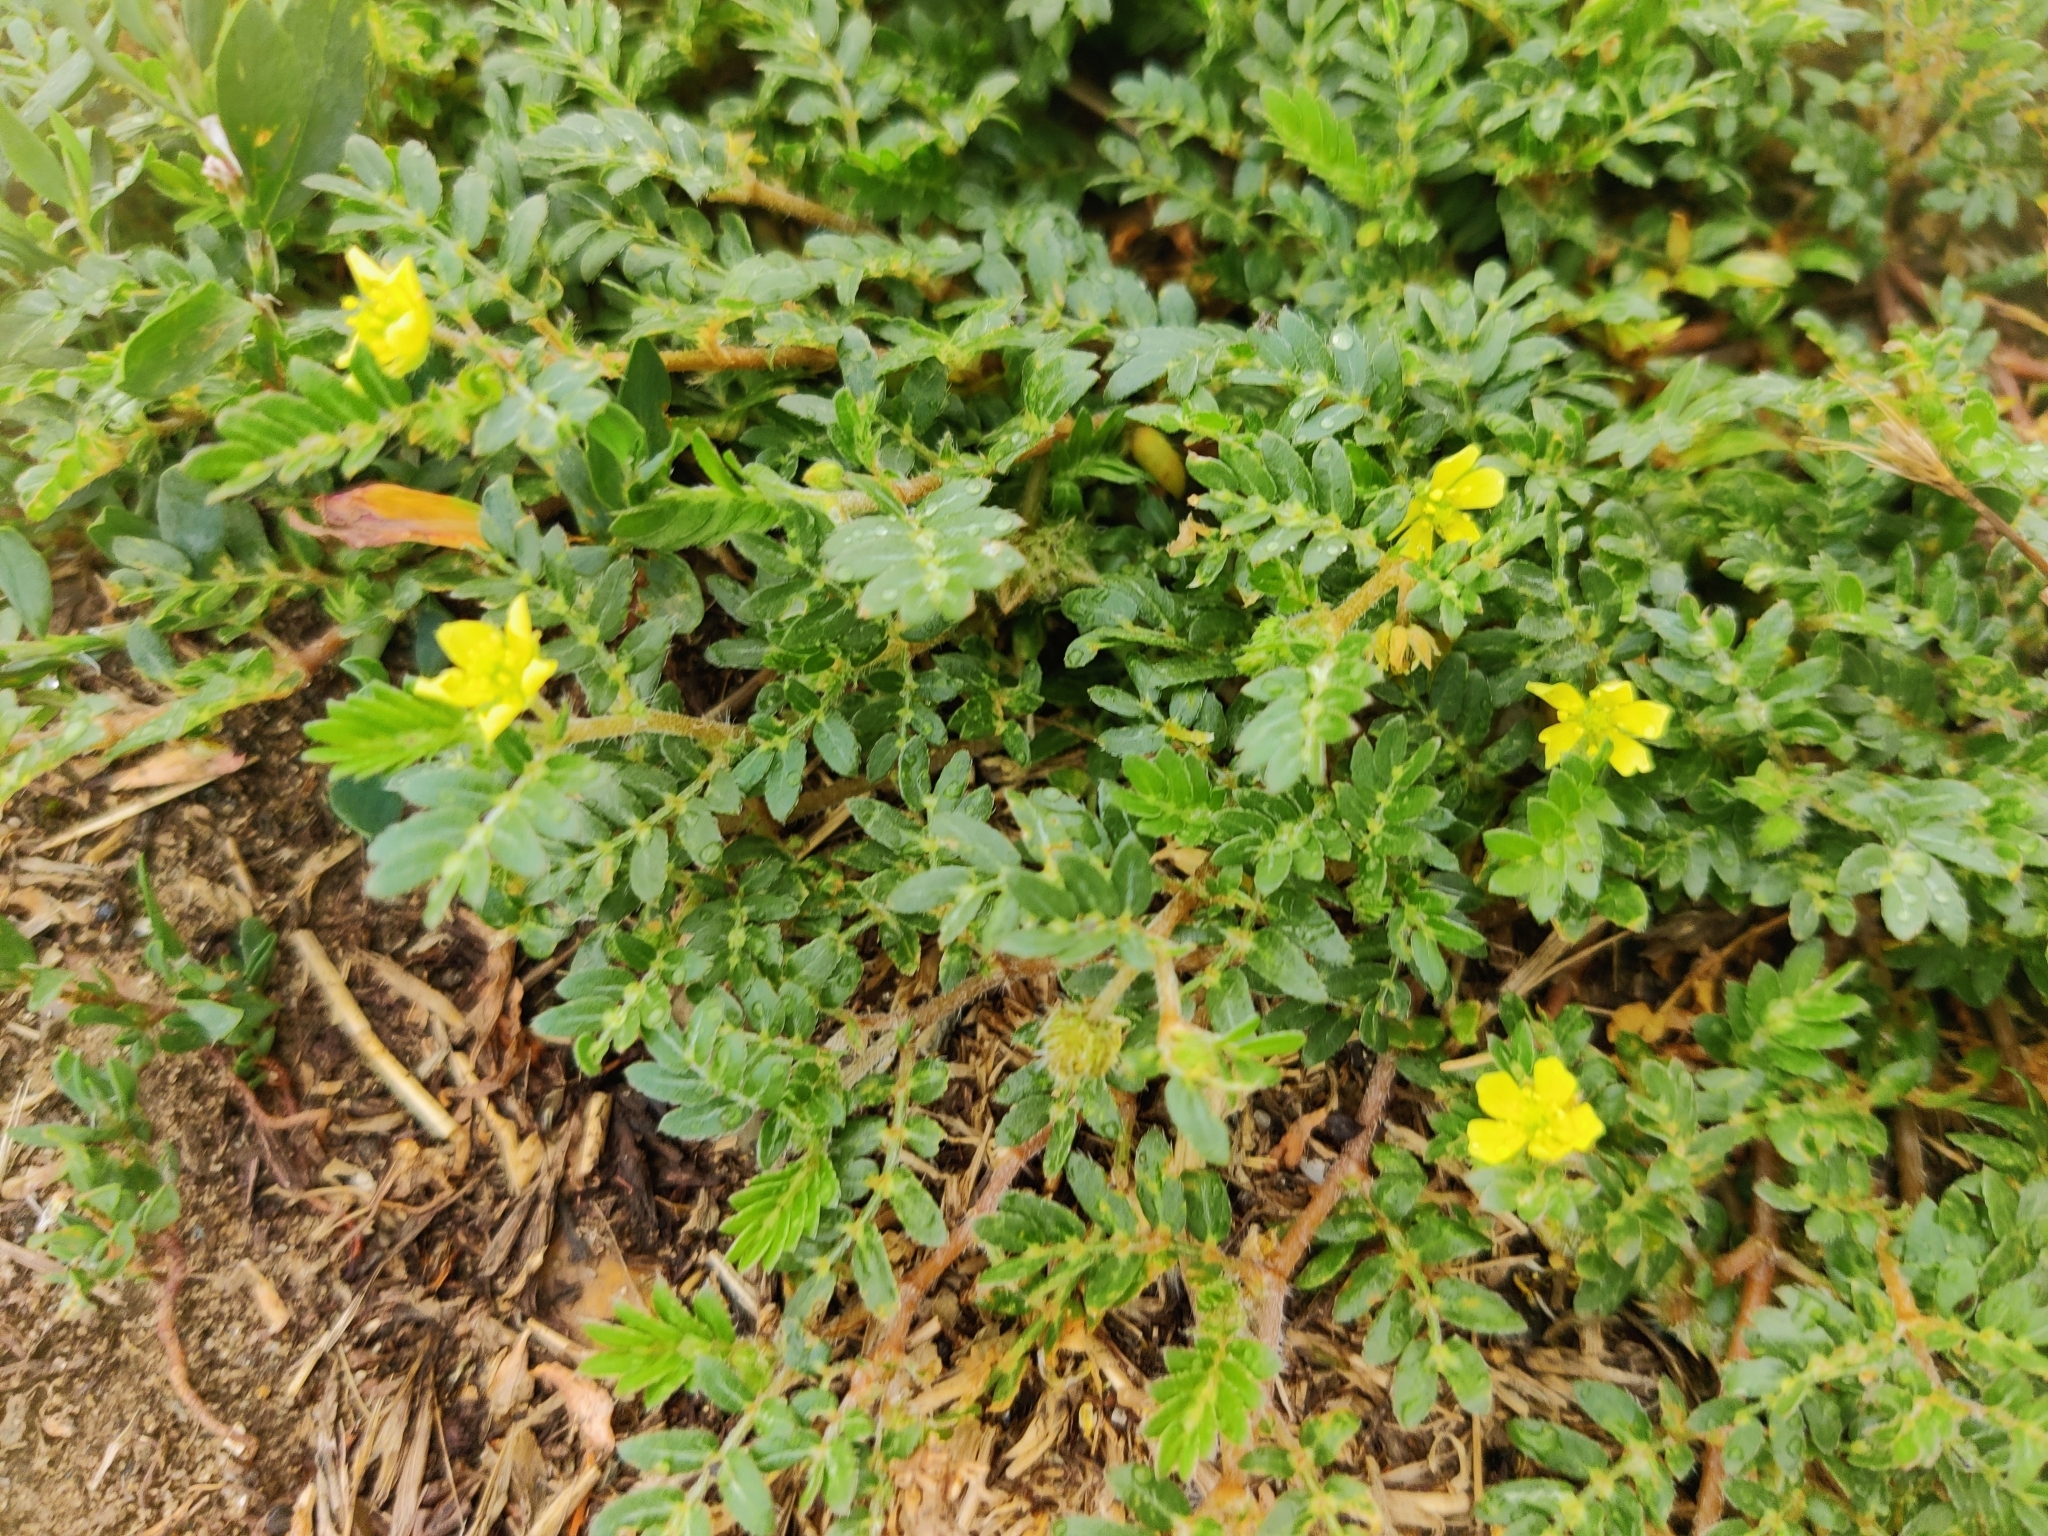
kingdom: Plantae
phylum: Tracheophyta
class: Magnoliopsida
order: Zygophyllales
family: Zygophyllaceae
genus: Tribulus
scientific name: Tribulus terrestris
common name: Puncturevine
